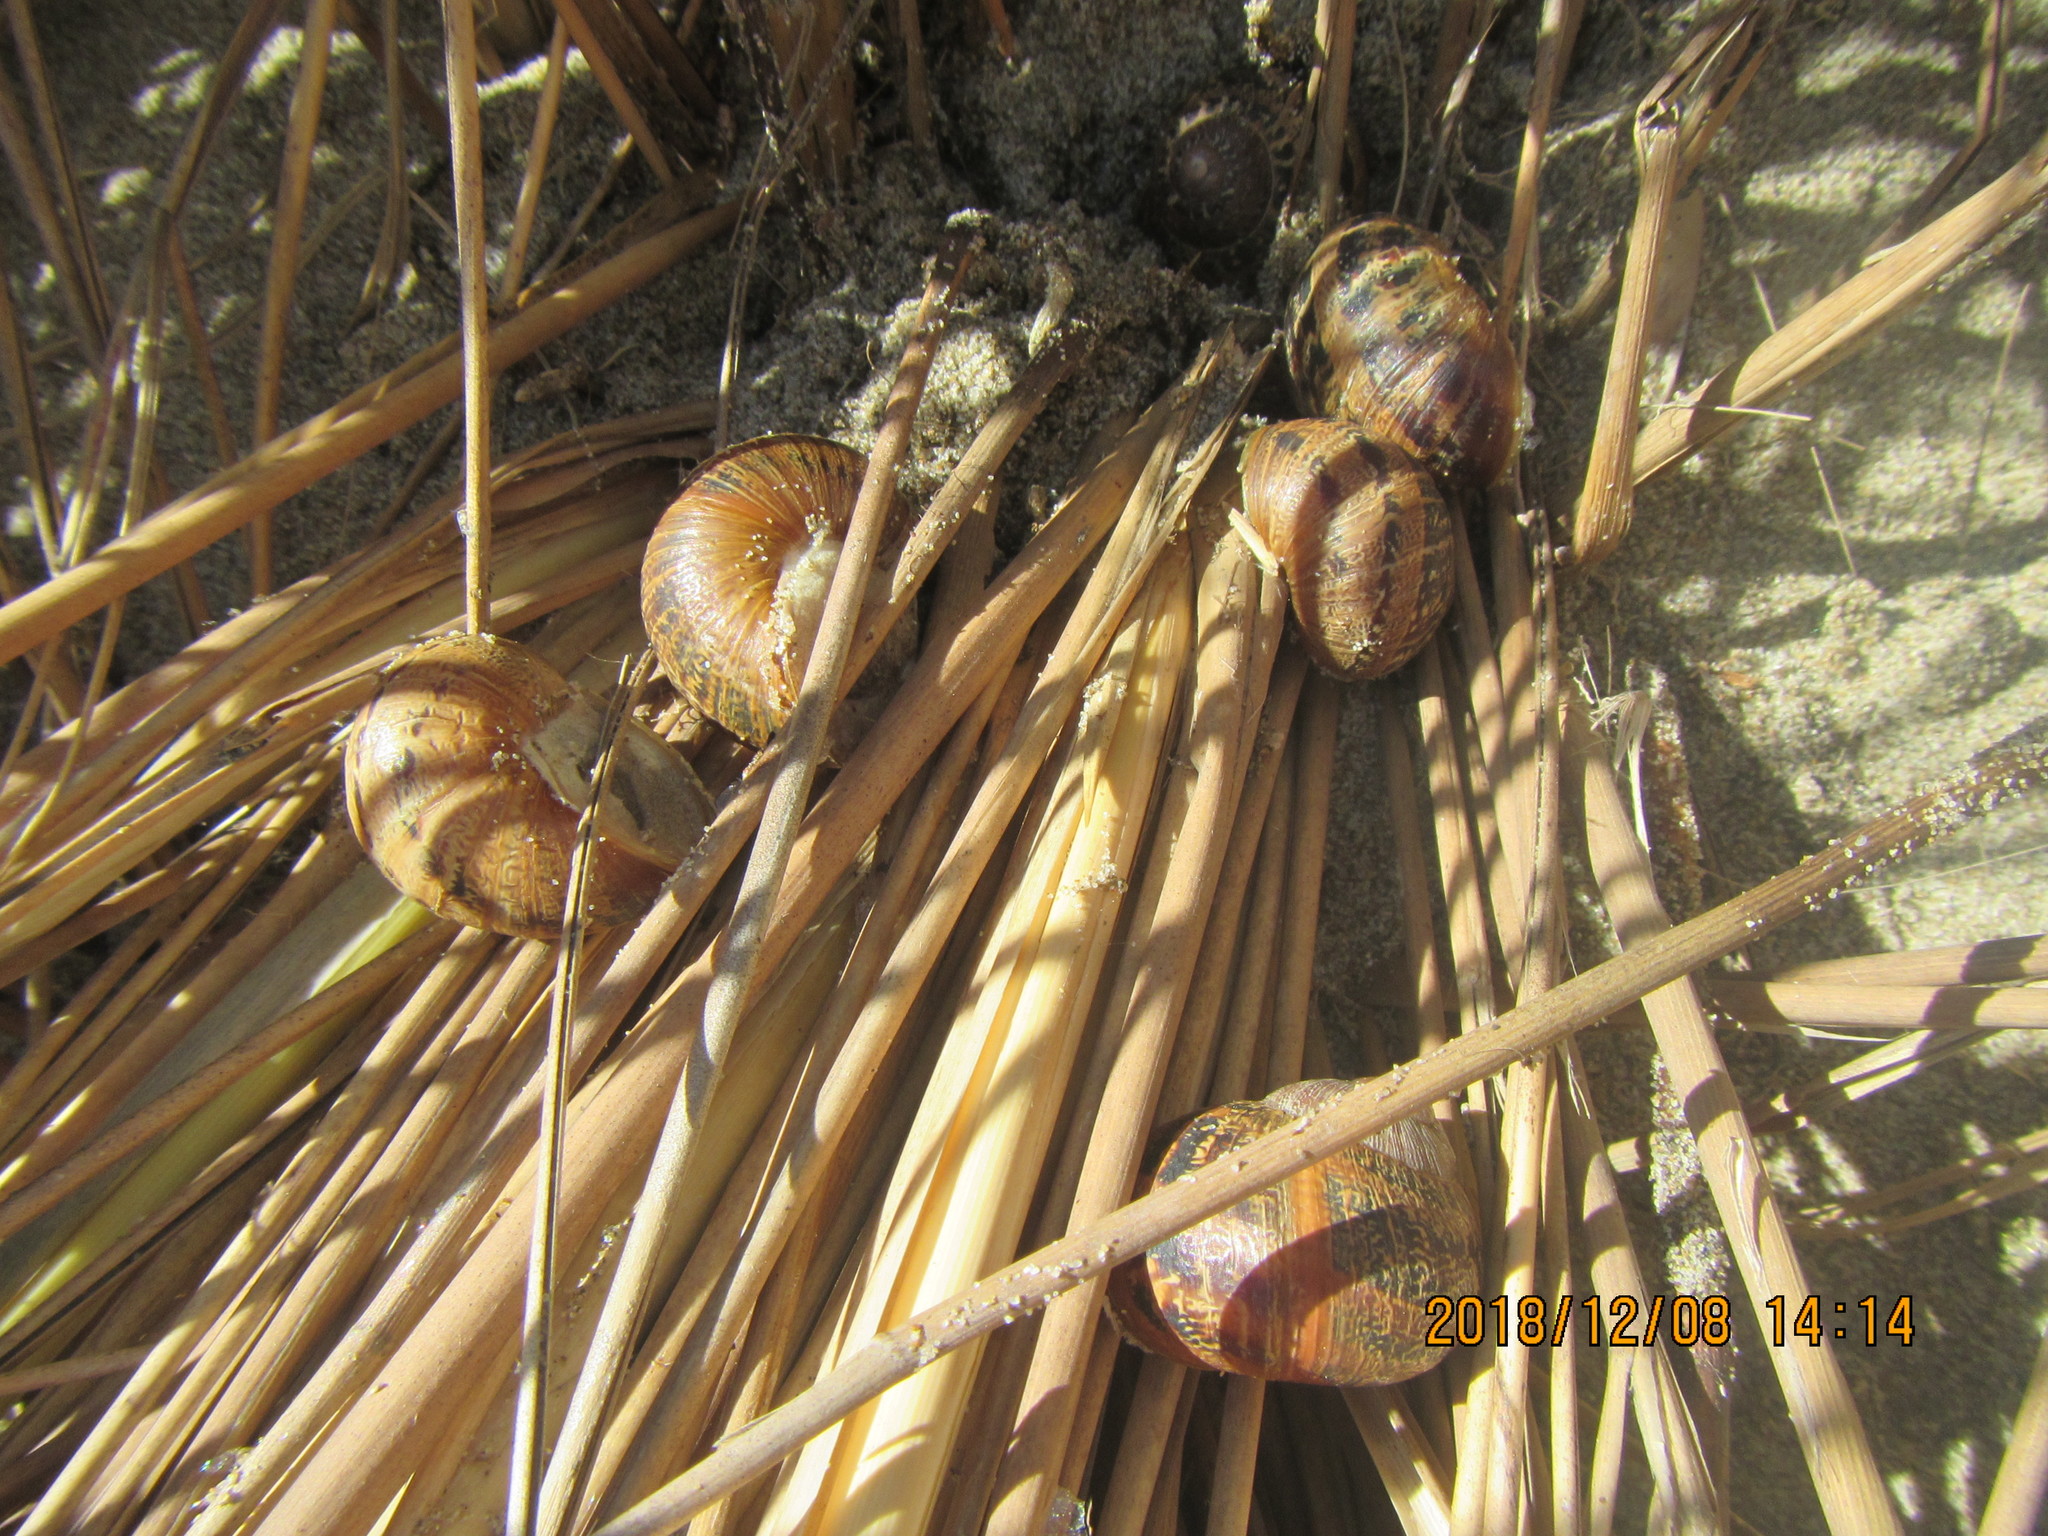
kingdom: Animalia
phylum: Mollusca
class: Gastropoda
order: Stylommatophora
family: Helicidae
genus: Cornu
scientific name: Cornu aspersum
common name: Brown garden snail
